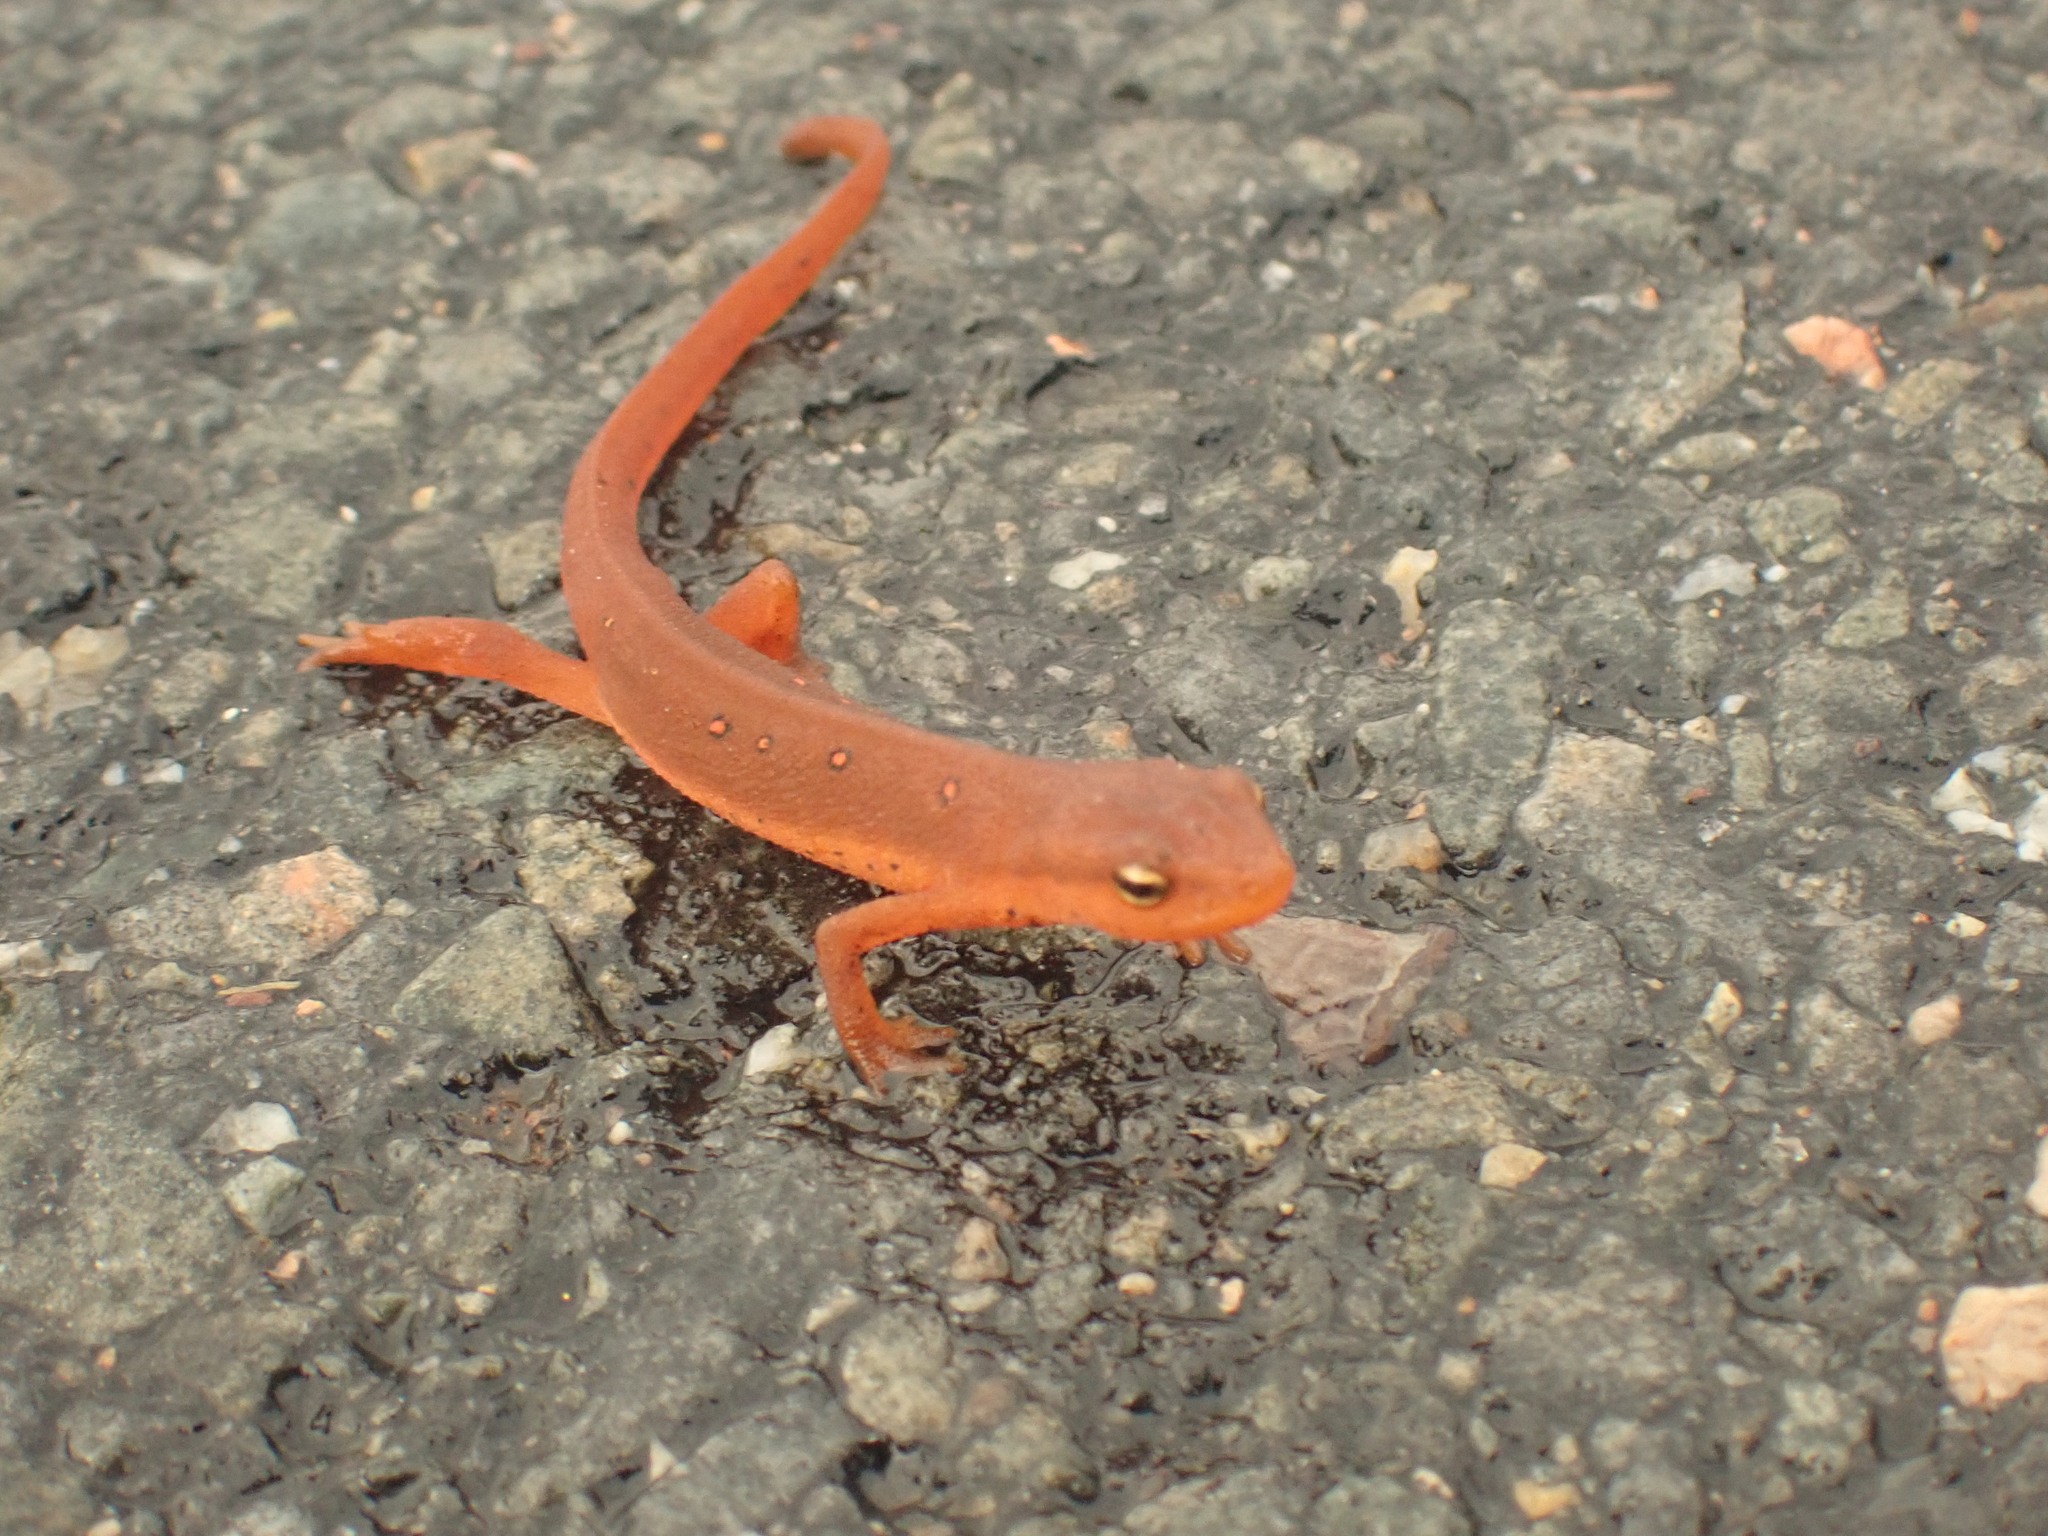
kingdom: Animalia
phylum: Chordata
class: Amphibia
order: Caudata
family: Salamandridae
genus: Notophthalmus
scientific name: Notophthalmus viridescens
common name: Eastern newt
